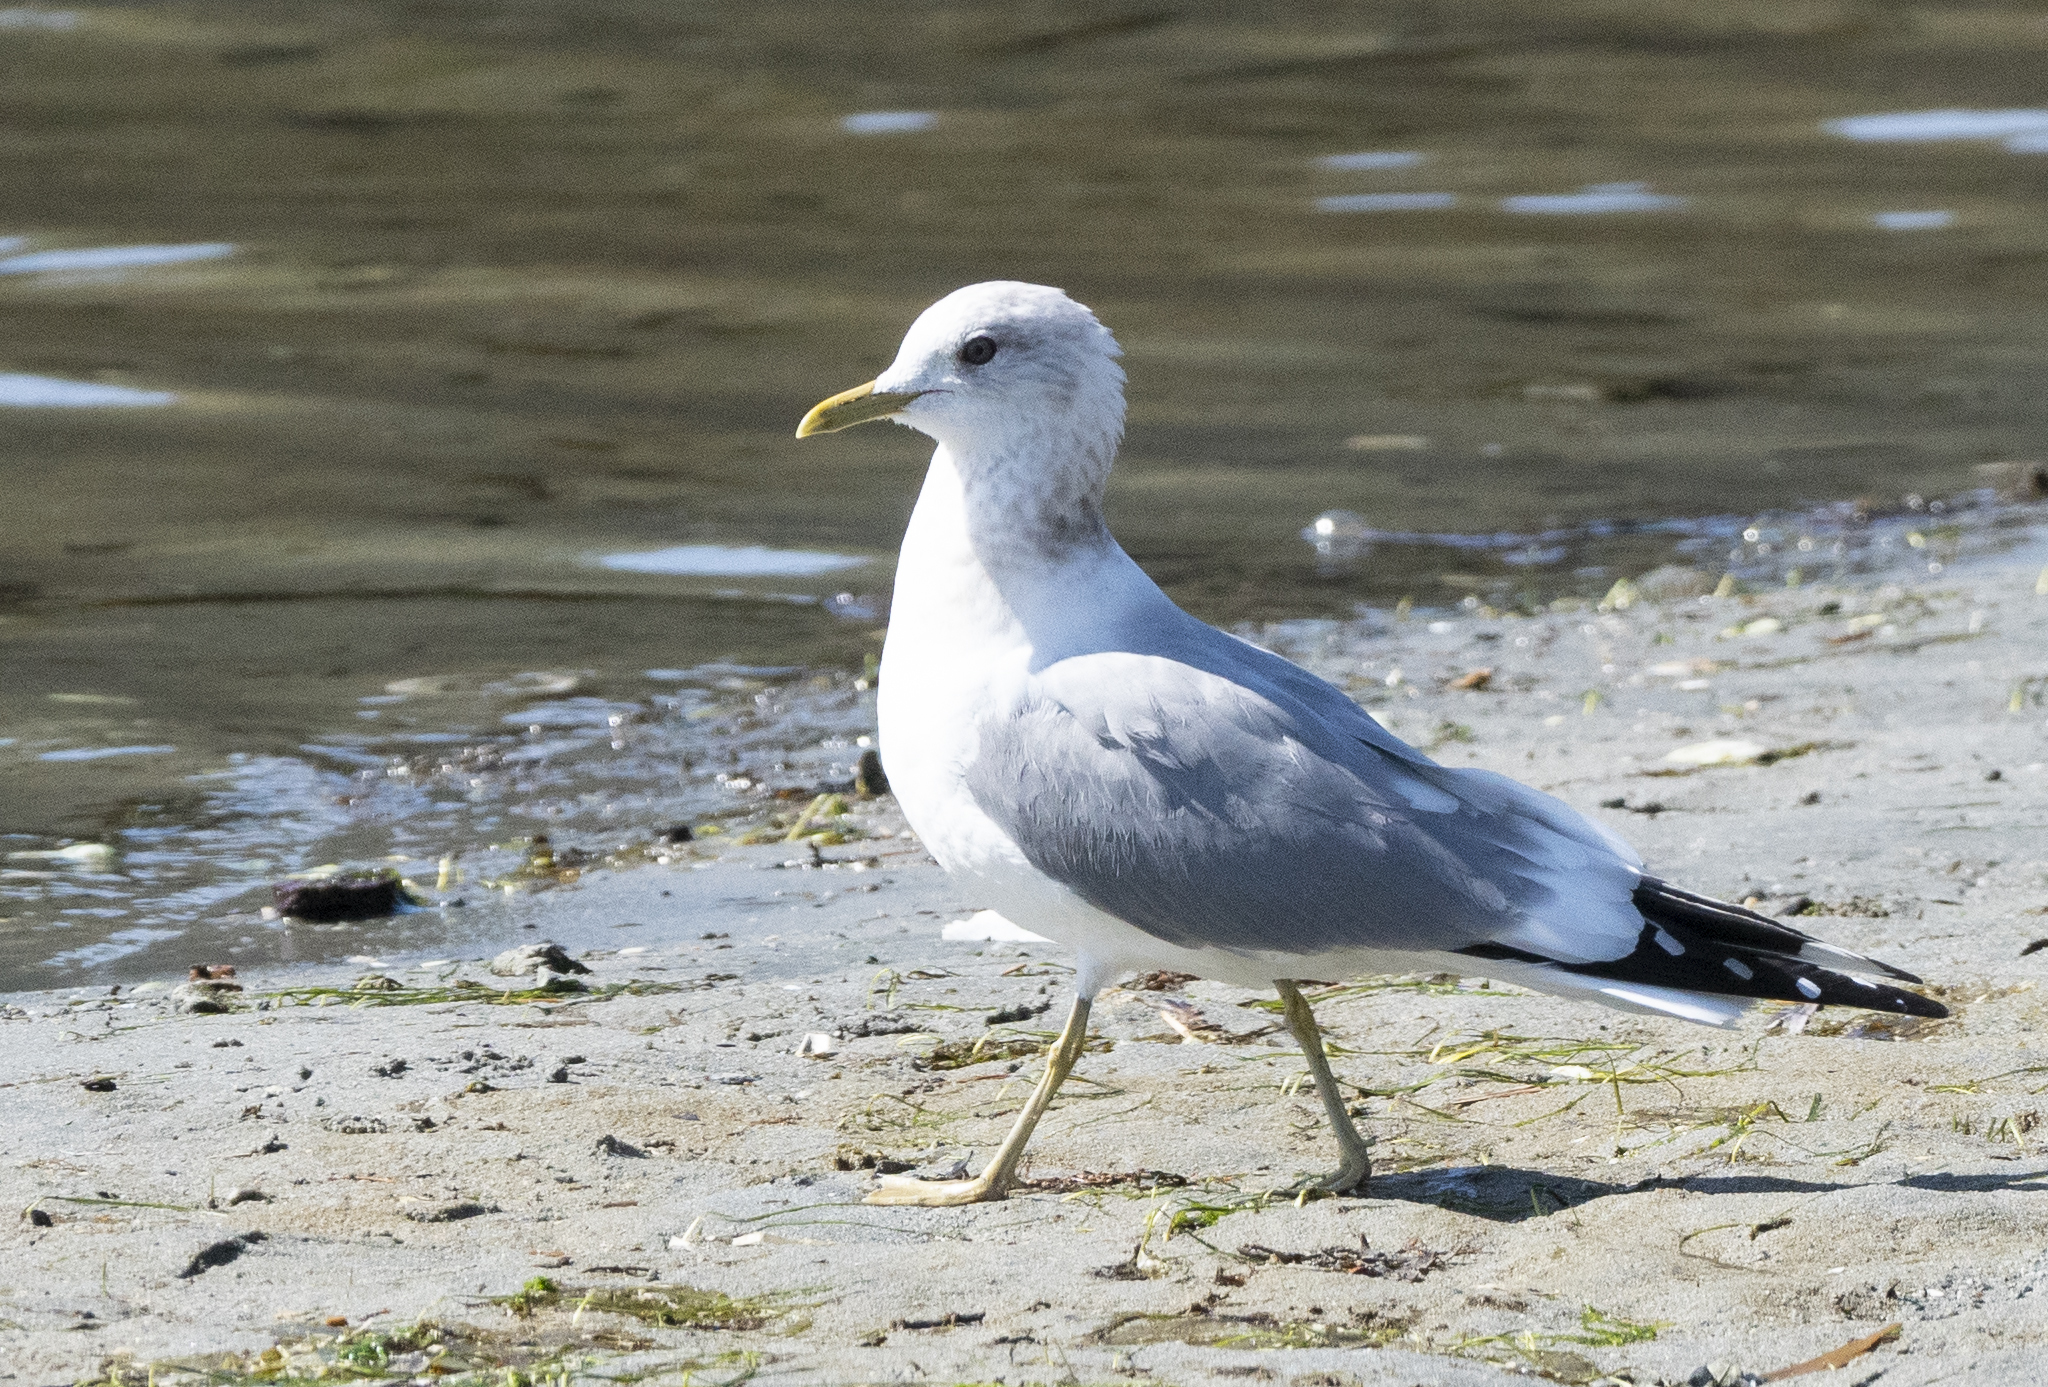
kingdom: Animalia
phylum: Chordata
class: Aves
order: Charadriiformes
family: Laridae
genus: Larus
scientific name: Larus brachyrhynchus
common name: Short-billed gull
